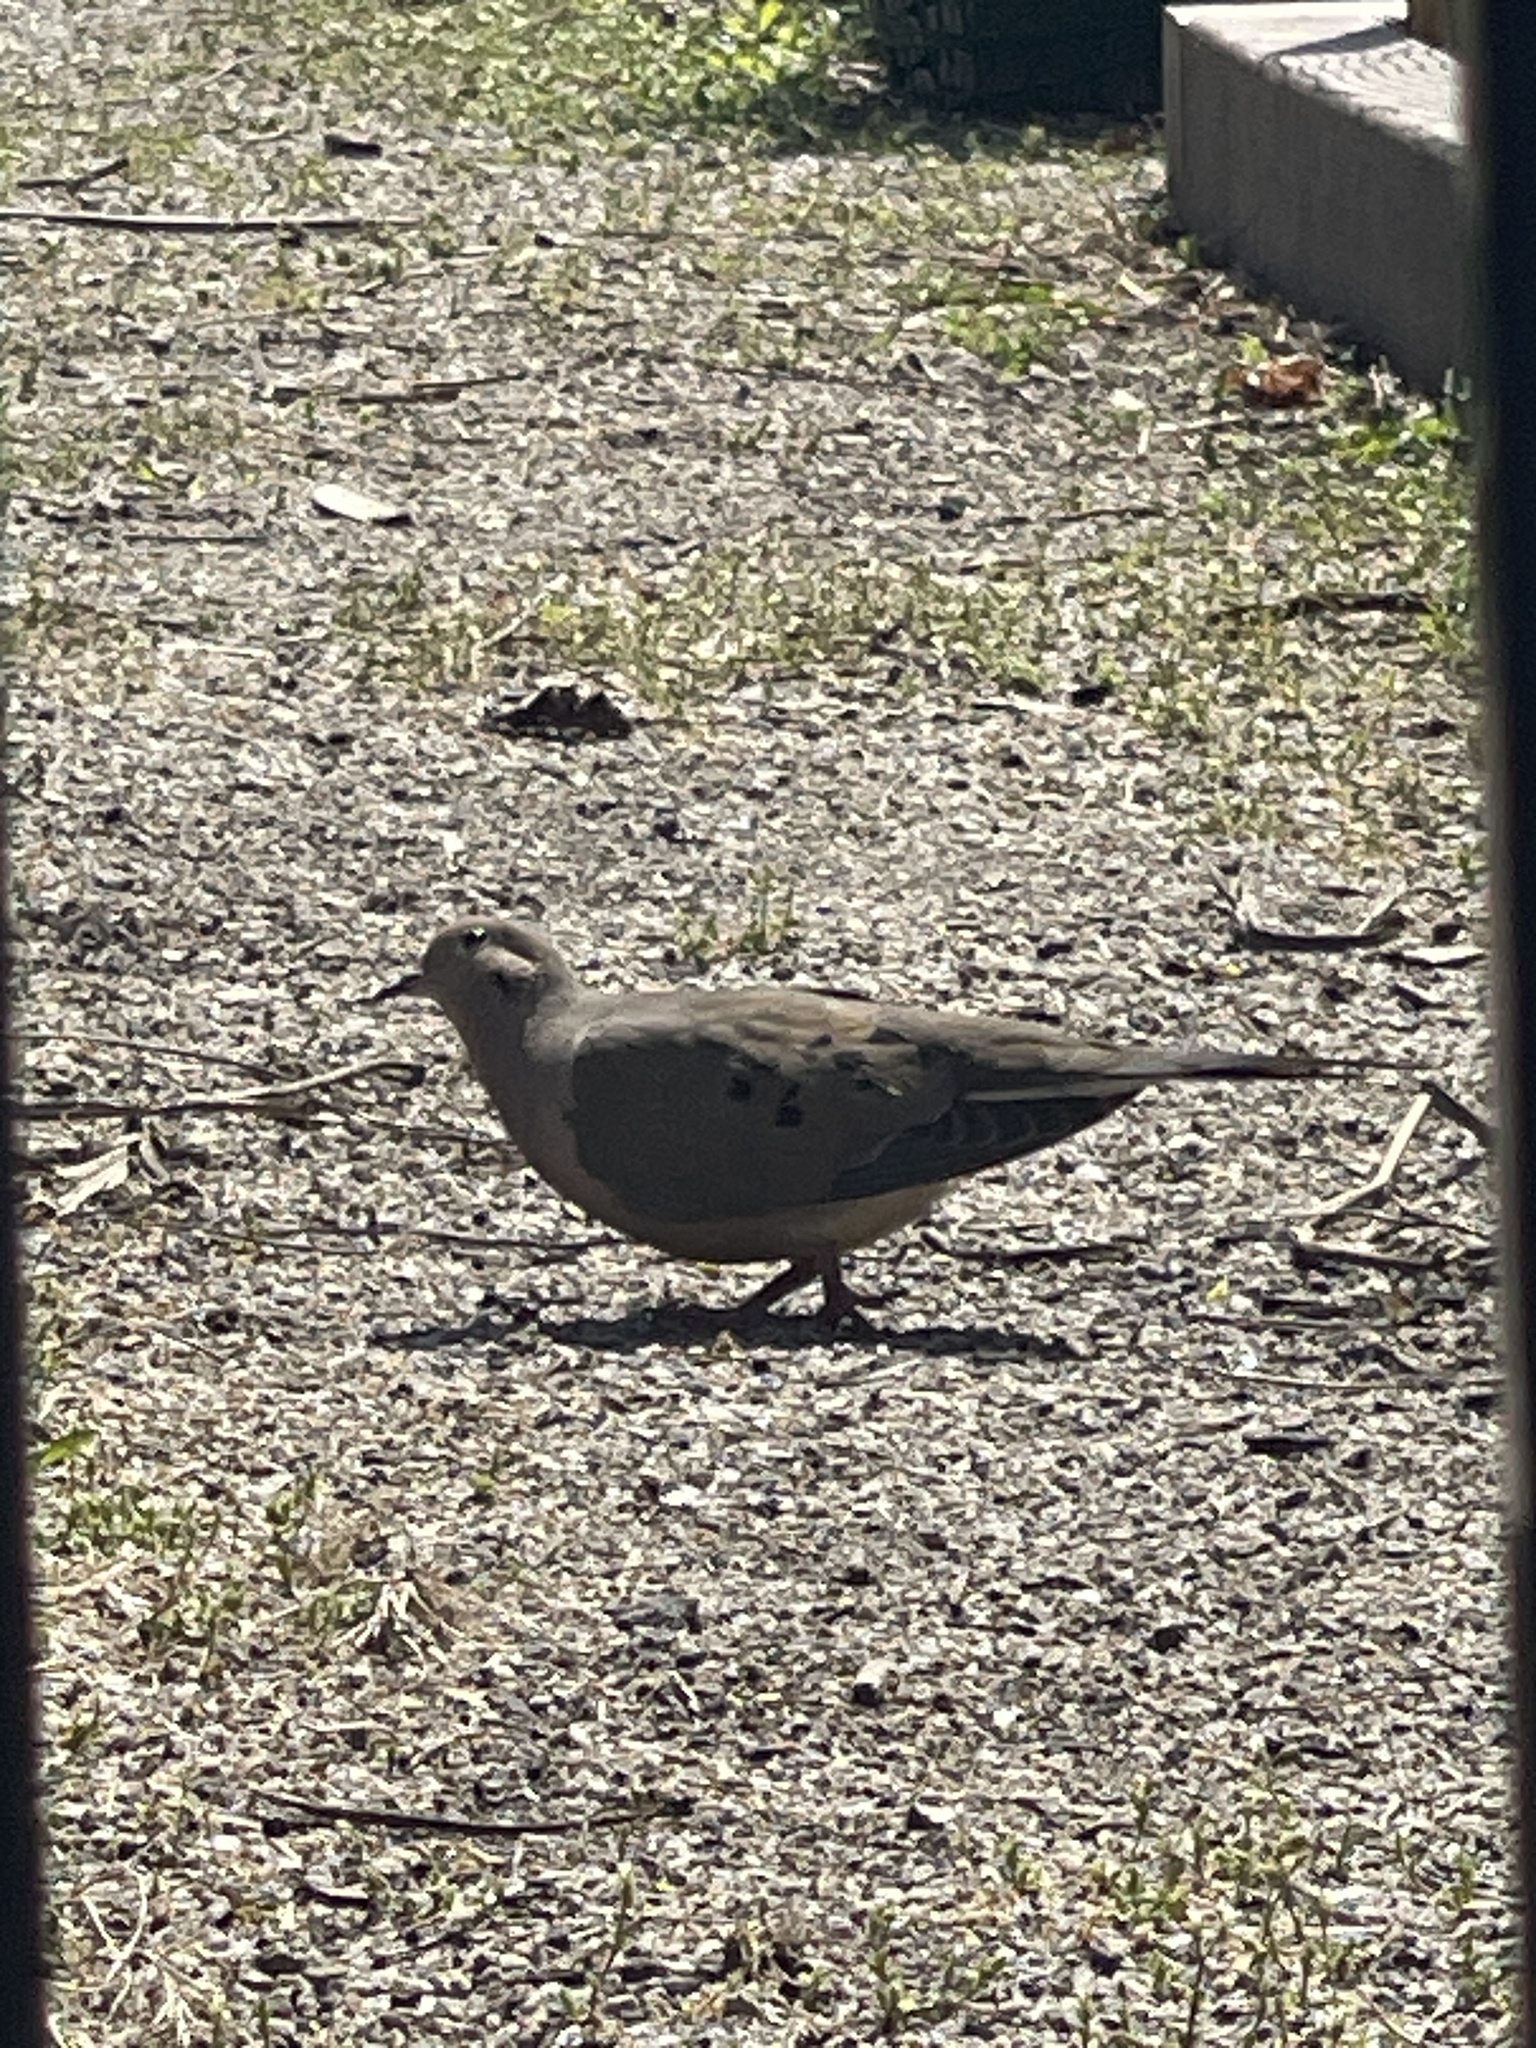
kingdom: Animalia
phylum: Chordata
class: Aves
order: Columbiformes
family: Columbidae
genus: Zenaida
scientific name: Zenaida macroura
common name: Mourning dove
